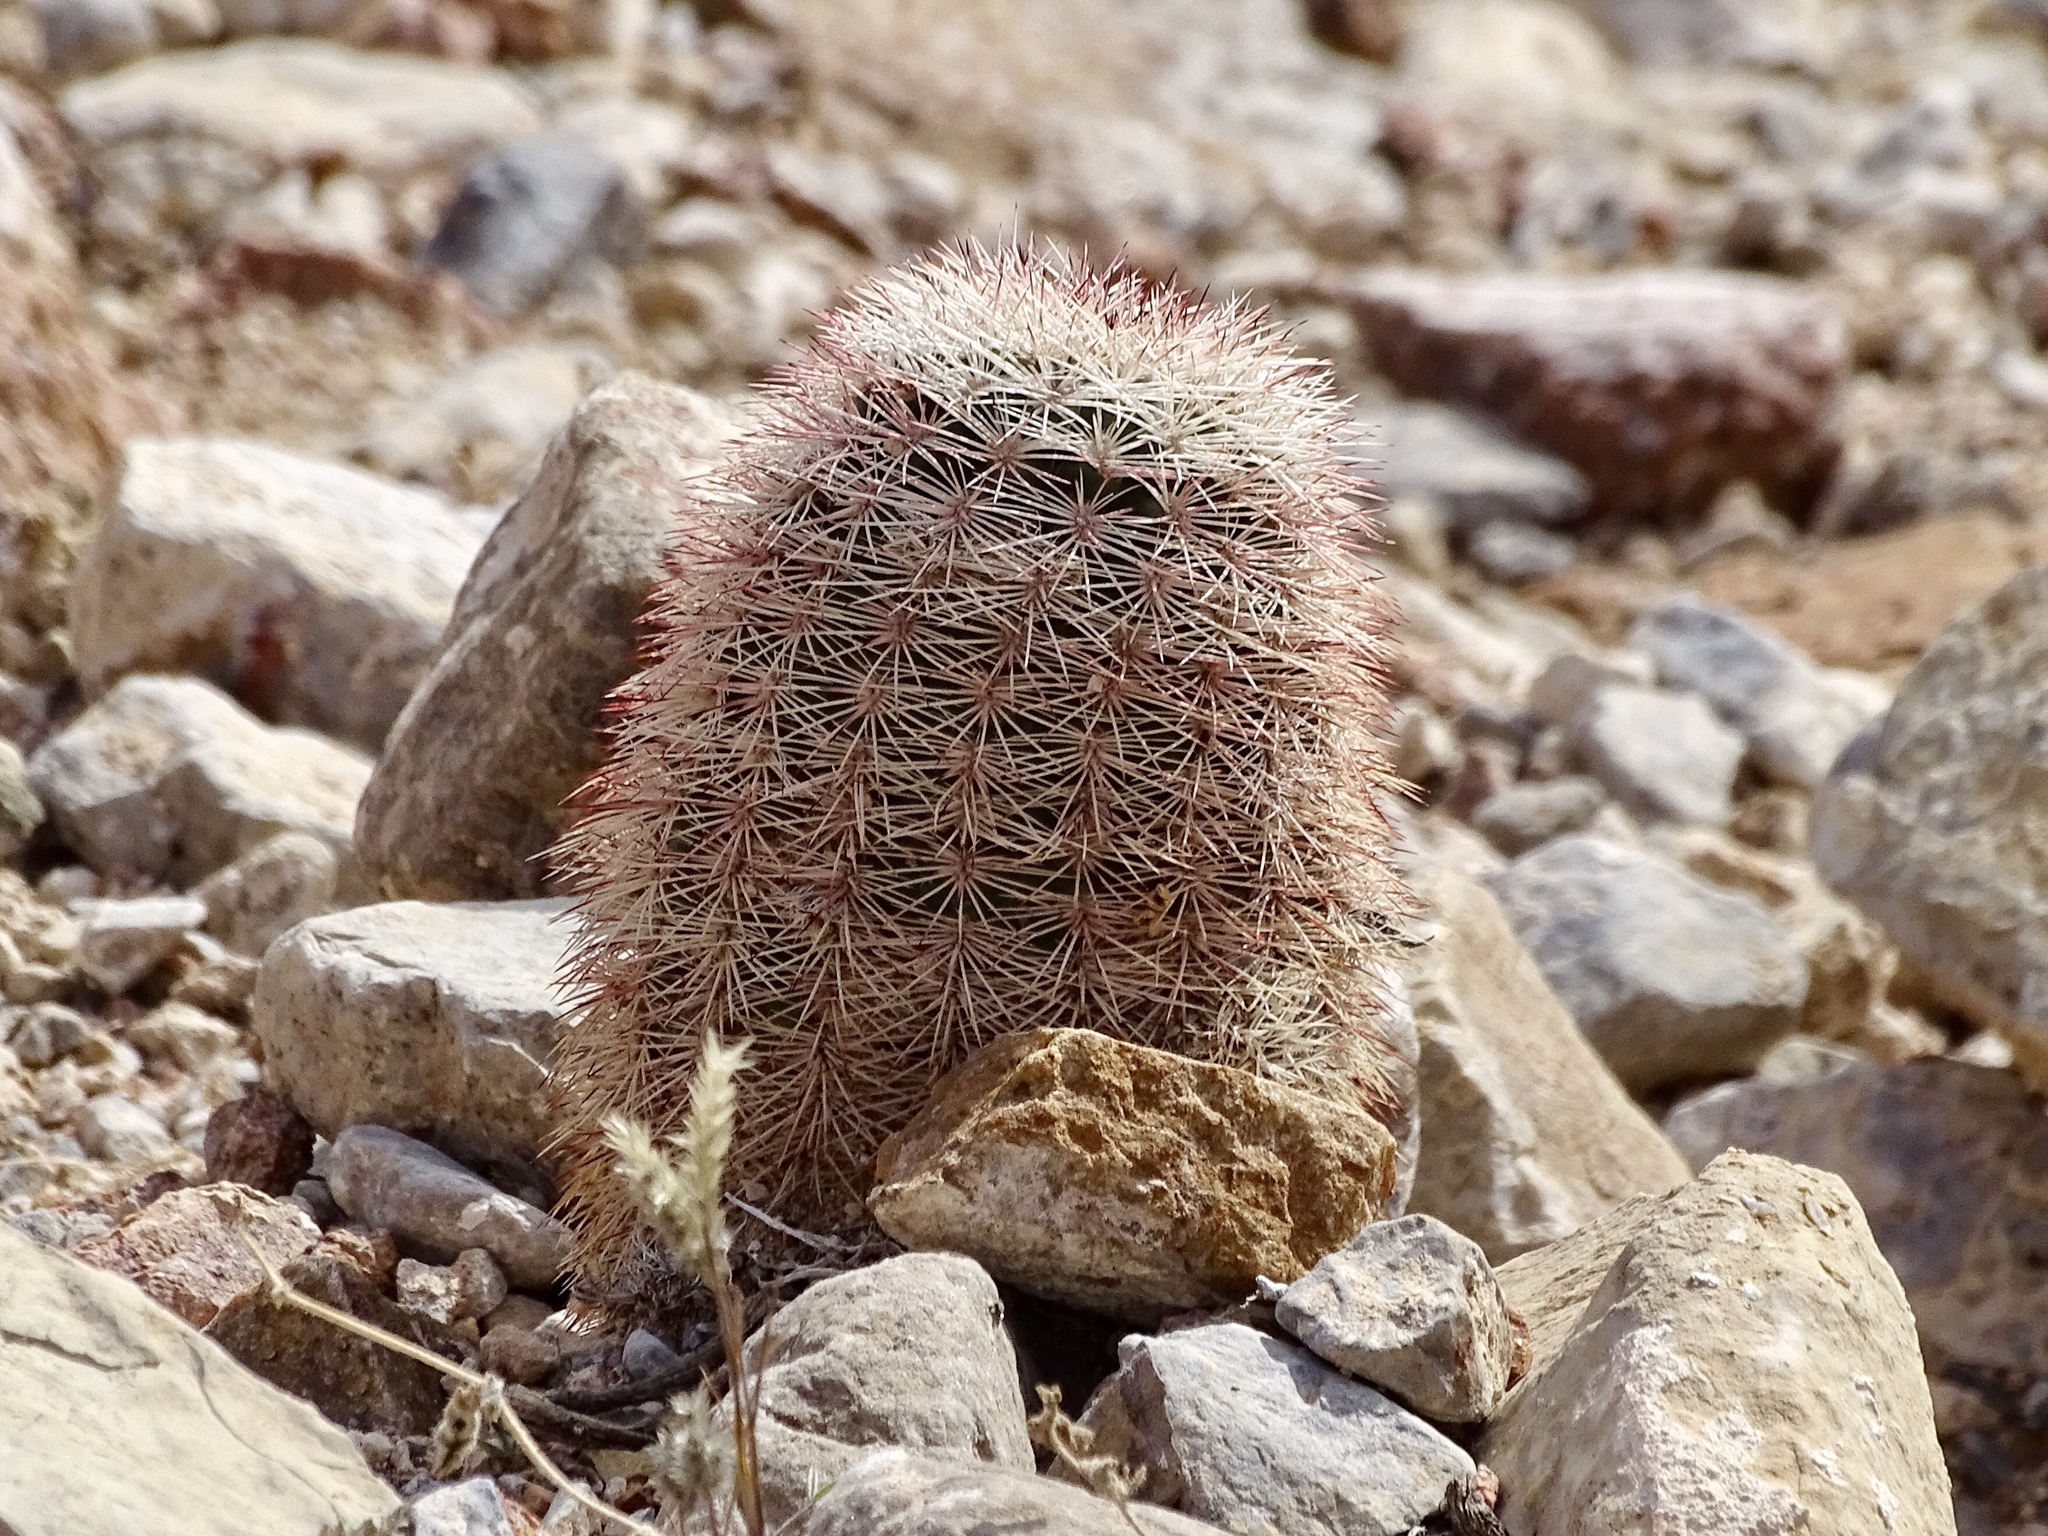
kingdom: Plantae
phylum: Tracheophyta
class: Magnoliopsida
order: Caryophyllales
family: Cactaceae
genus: Echinocereus
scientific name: Echinocereus dasyacanthus
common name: Spiny hedgehog cactus
